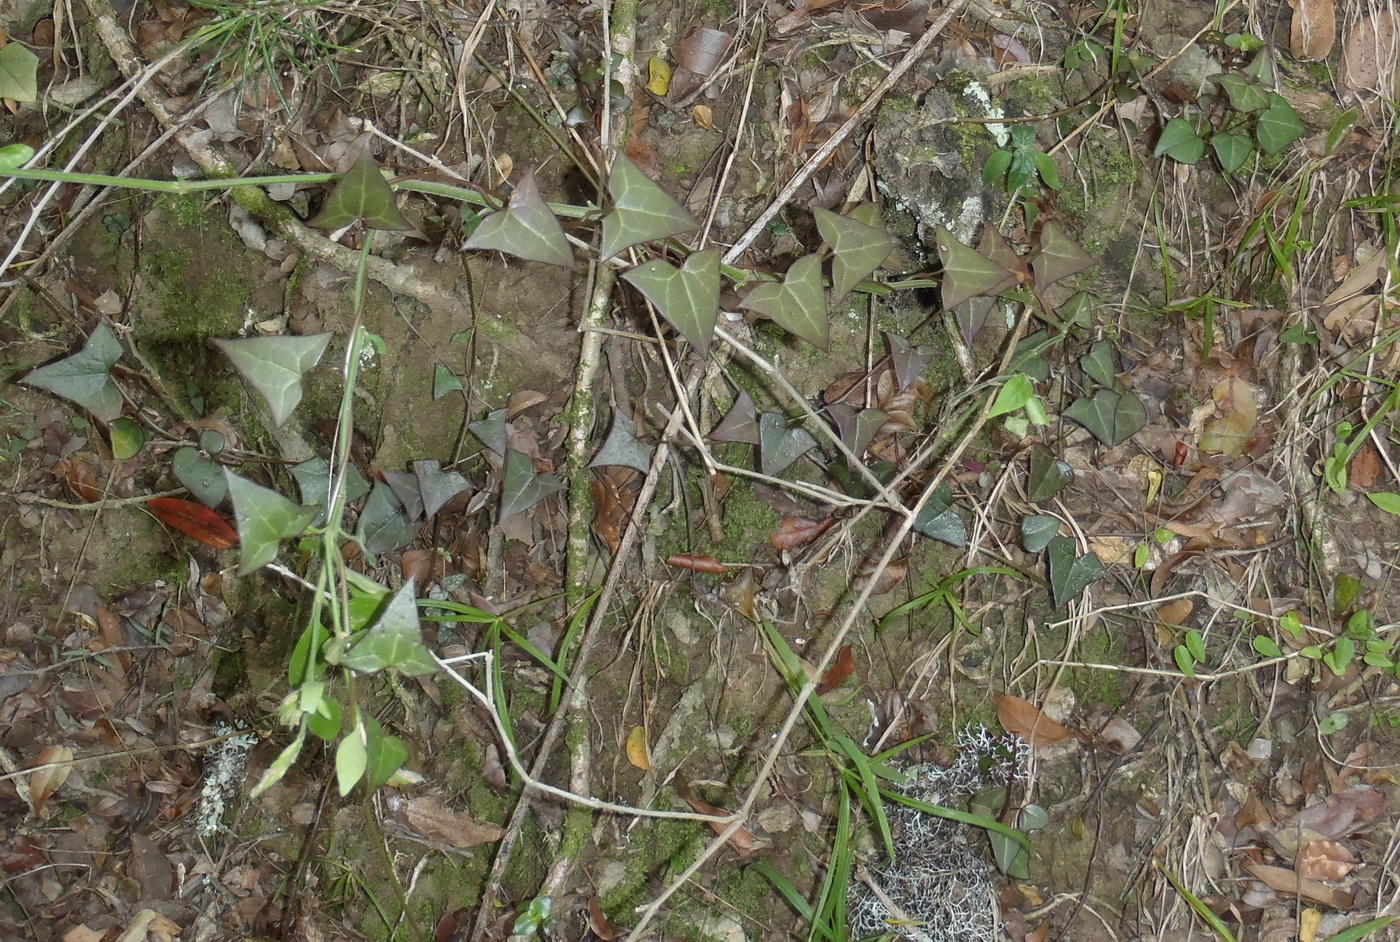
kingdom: Plantae
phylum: Tracheophyta
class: Magnoliopsida
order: Asterales
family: Asteraceae
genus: Senecio
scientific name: Senecio macroglossus
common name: Natal-ivy
